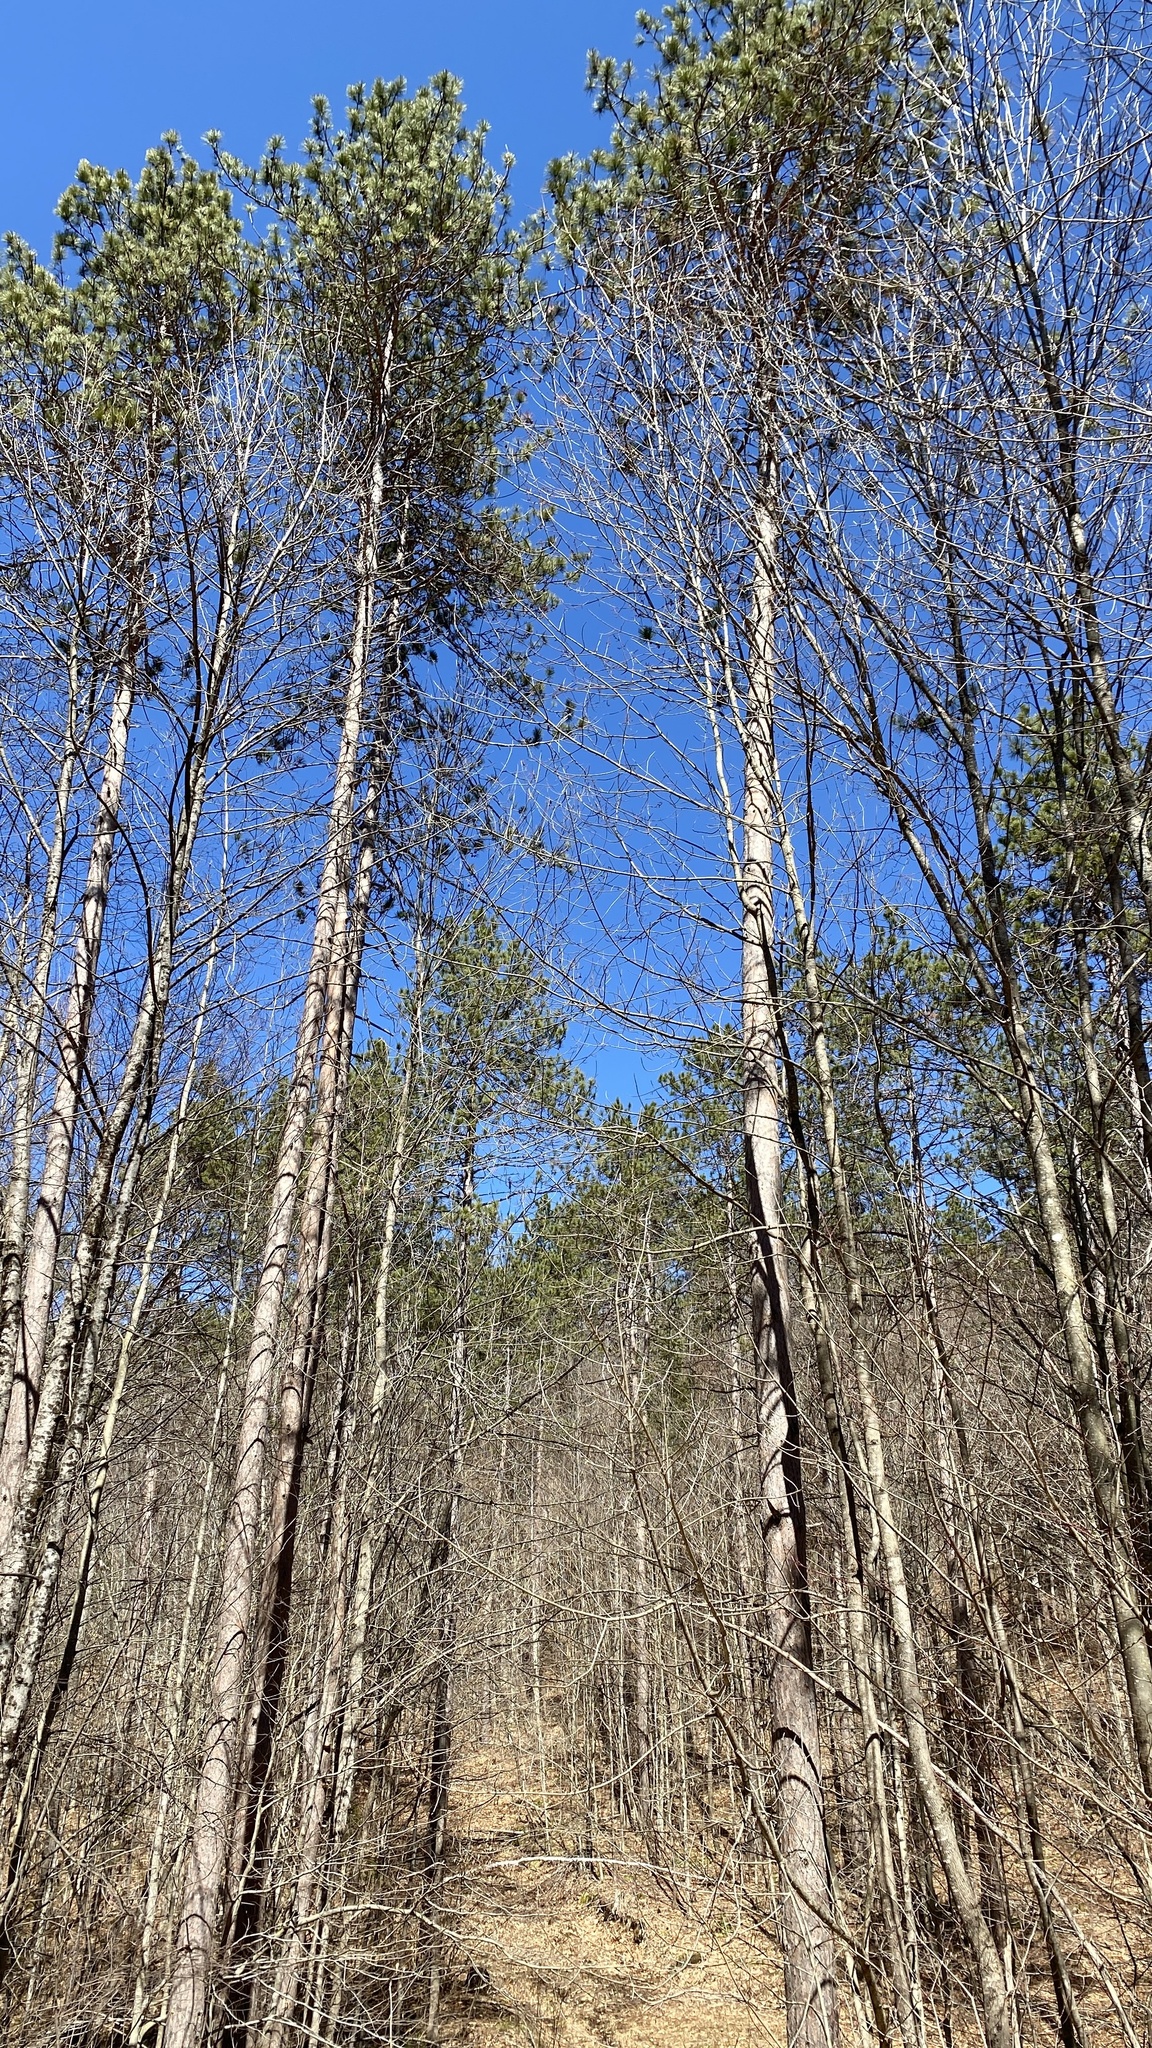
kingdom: Plantae
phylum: Tracheophyta
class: Pinopsida
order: Pinales
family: Pinaceae
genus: Pinus
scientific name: Pinus resinosa
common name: Norway pine
